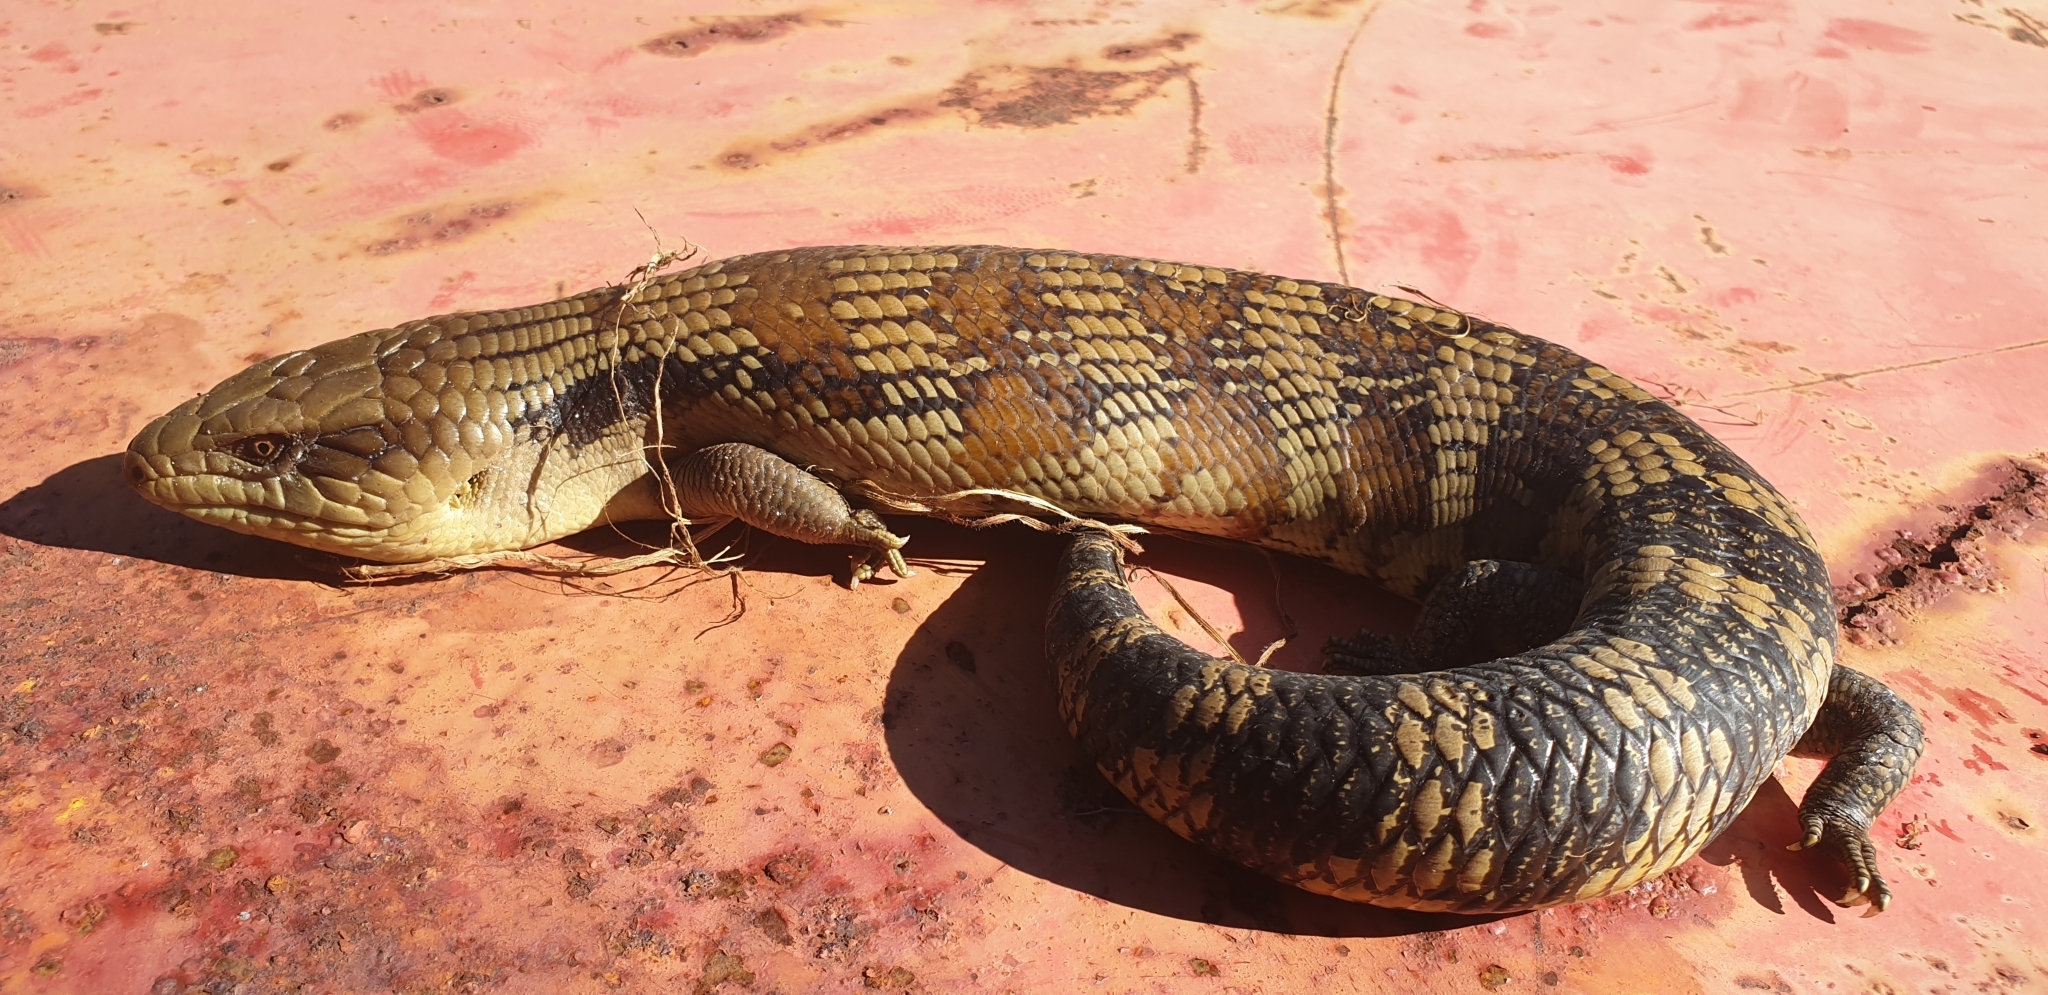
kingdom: Animalia
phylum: Chordata
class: Squamata
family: Scincidae
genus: Tiliqua
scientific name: Tiliqua scincoides
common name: Common bluetongue
